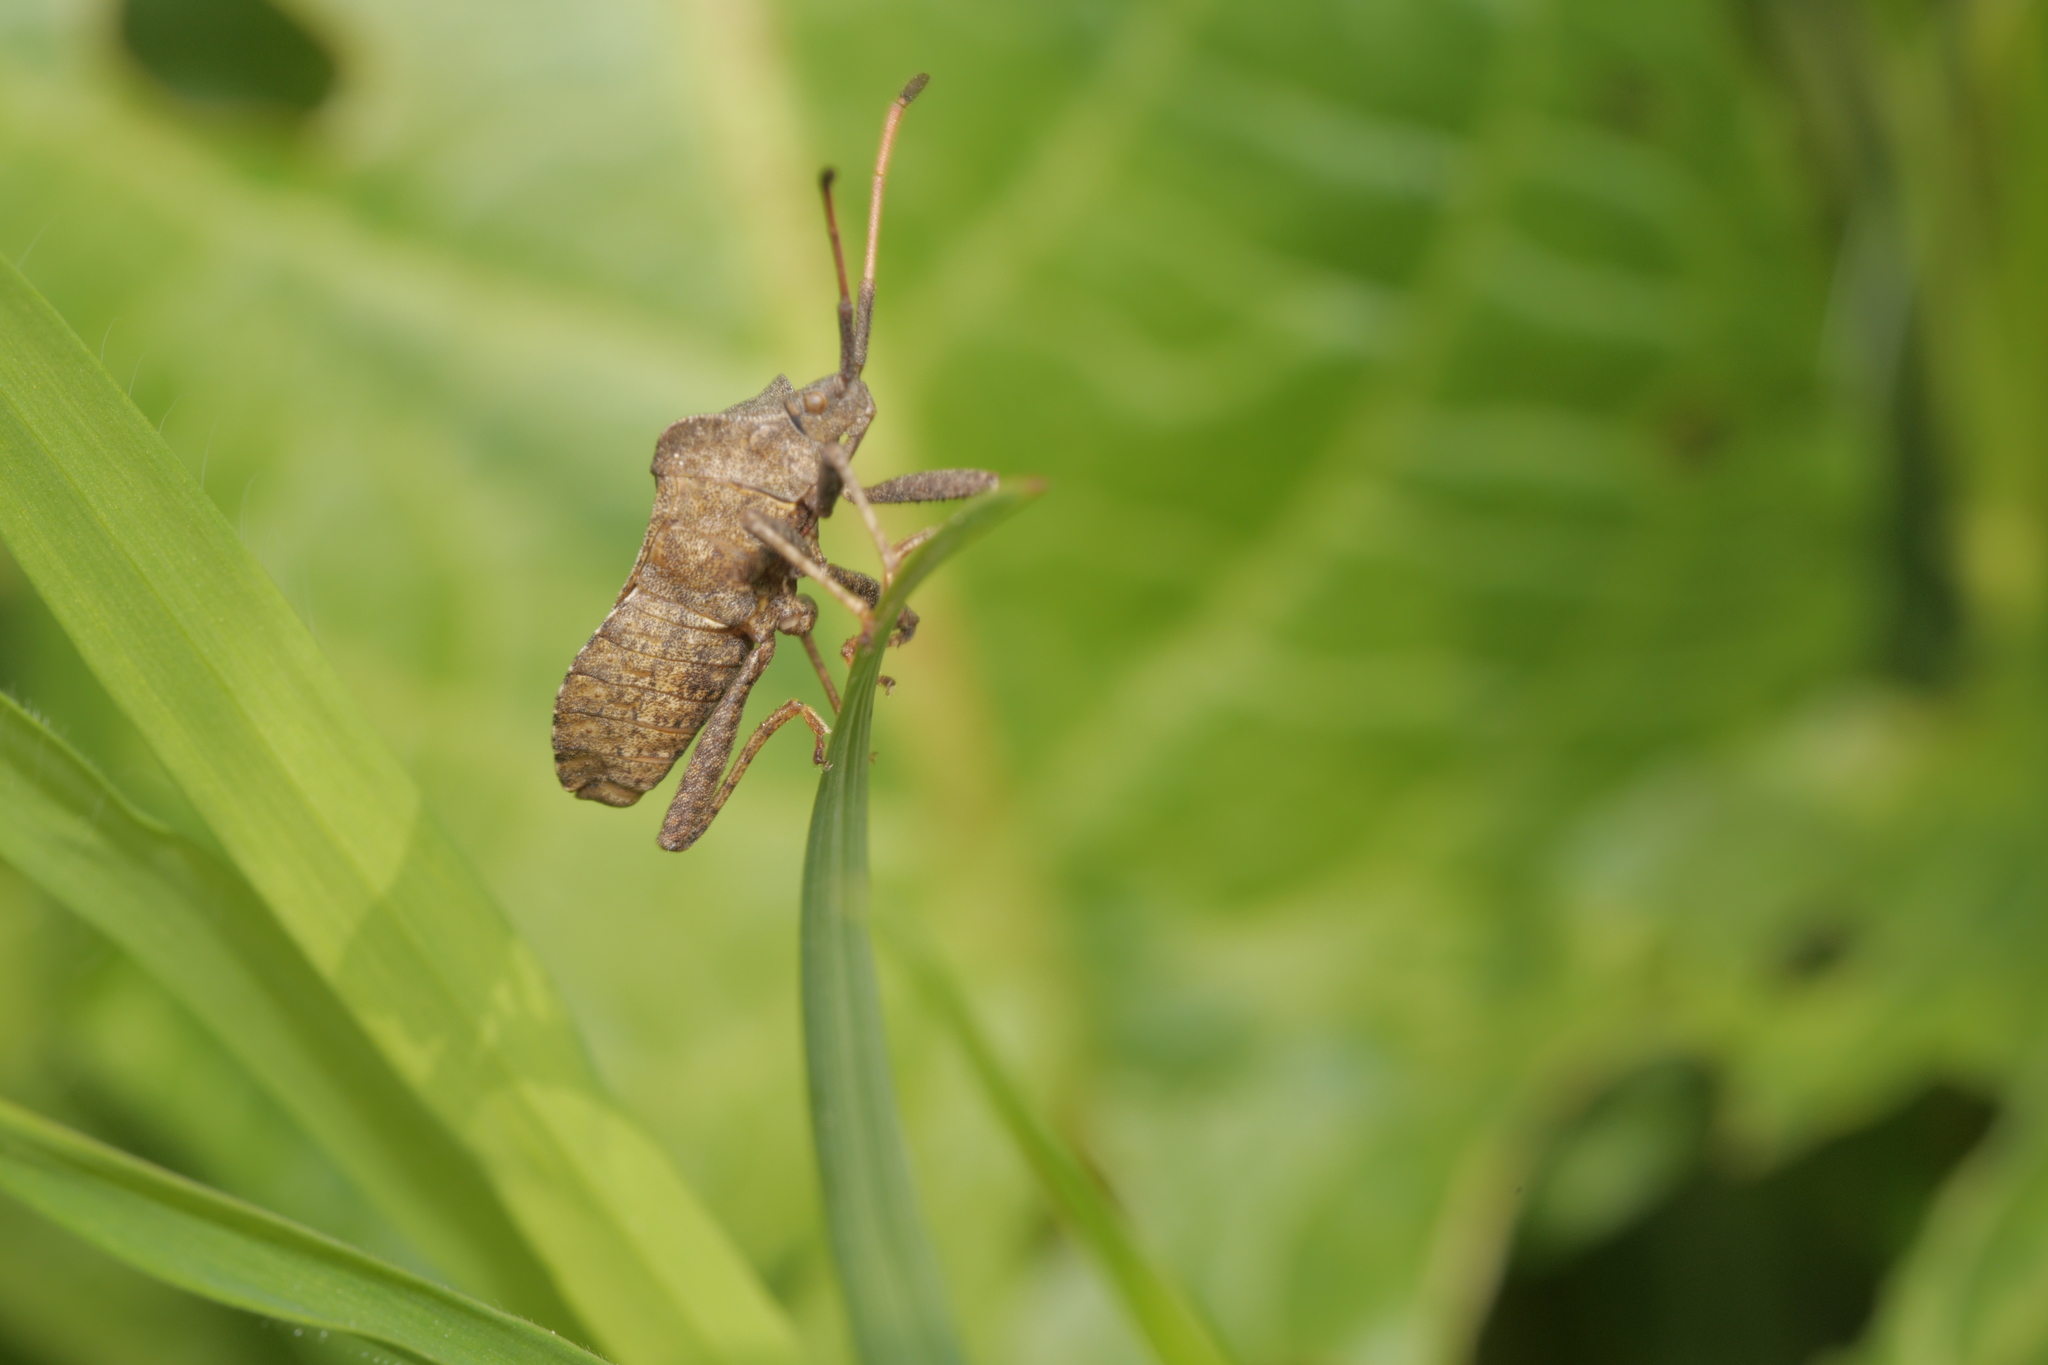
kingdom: Animalia
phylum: Arthropoda
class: Insecta
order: Hemiptera
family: Coreidae
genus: Coreus
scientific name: Coreus marginatus
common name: Dock bug
